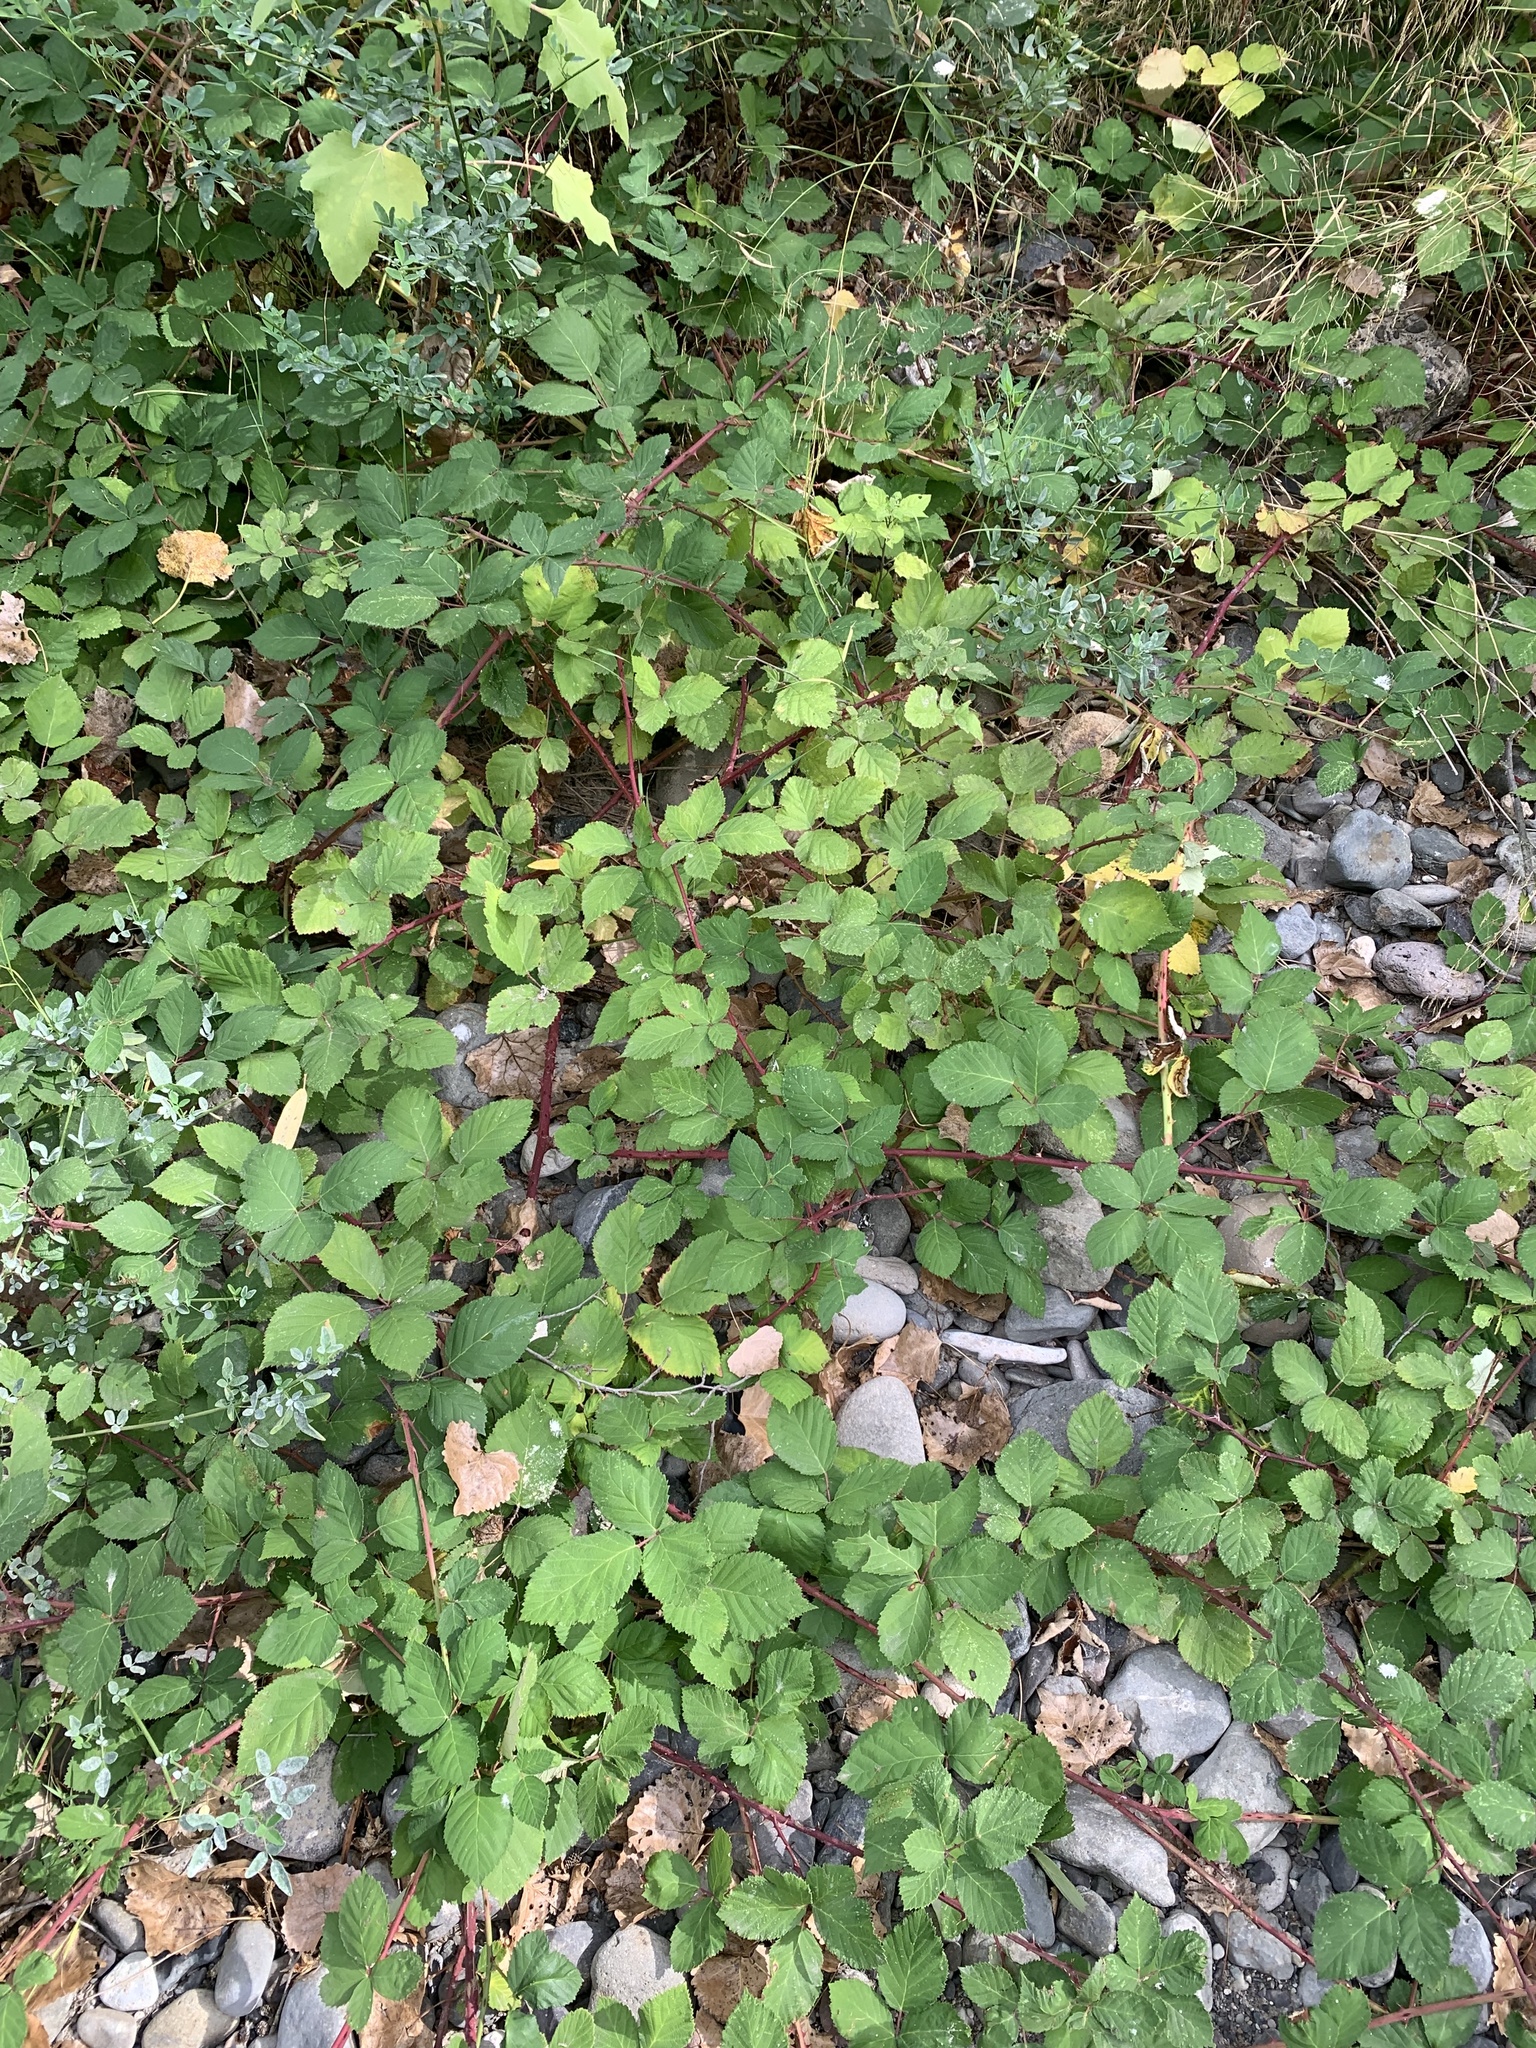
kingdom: Plantae
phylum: Tracheophyta
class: Magnoliopsida
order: Rosales
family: Rosaceae
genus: Rubus
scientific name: Rubus armeniacus
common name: Himalayan blackberry
